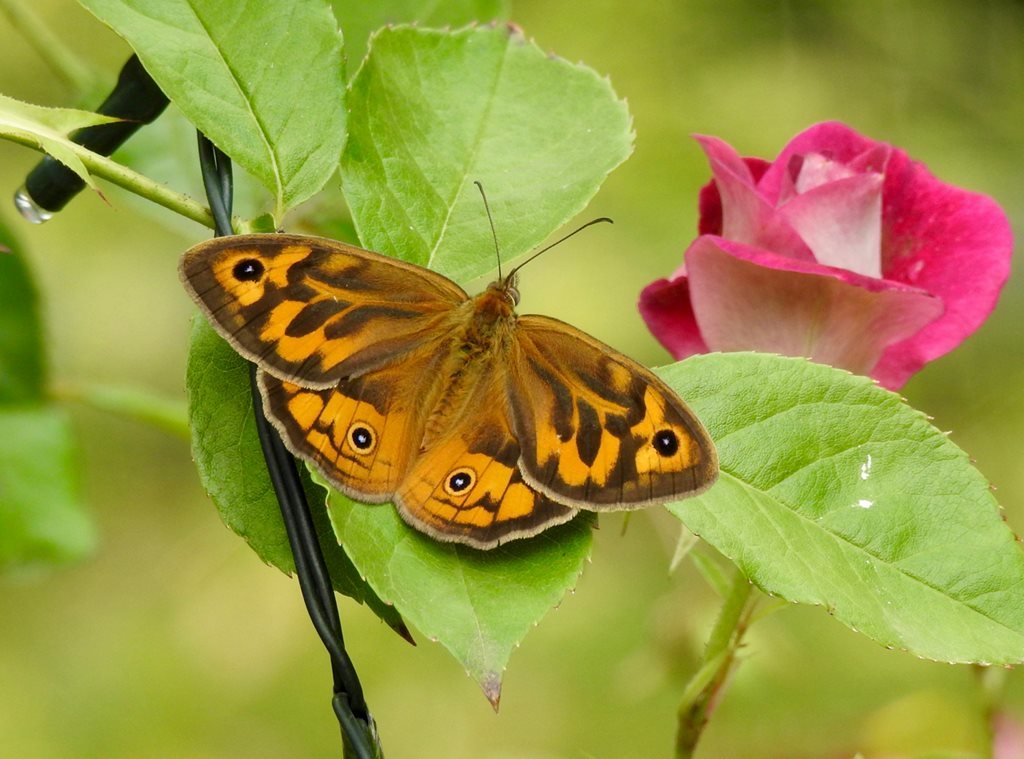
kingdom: Animalia
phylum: Arthropoda
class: Insecta
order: Lepidoptera
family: Nymphalidae
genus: Heteronympha
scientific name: Heteronympha merope
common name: Common brown
